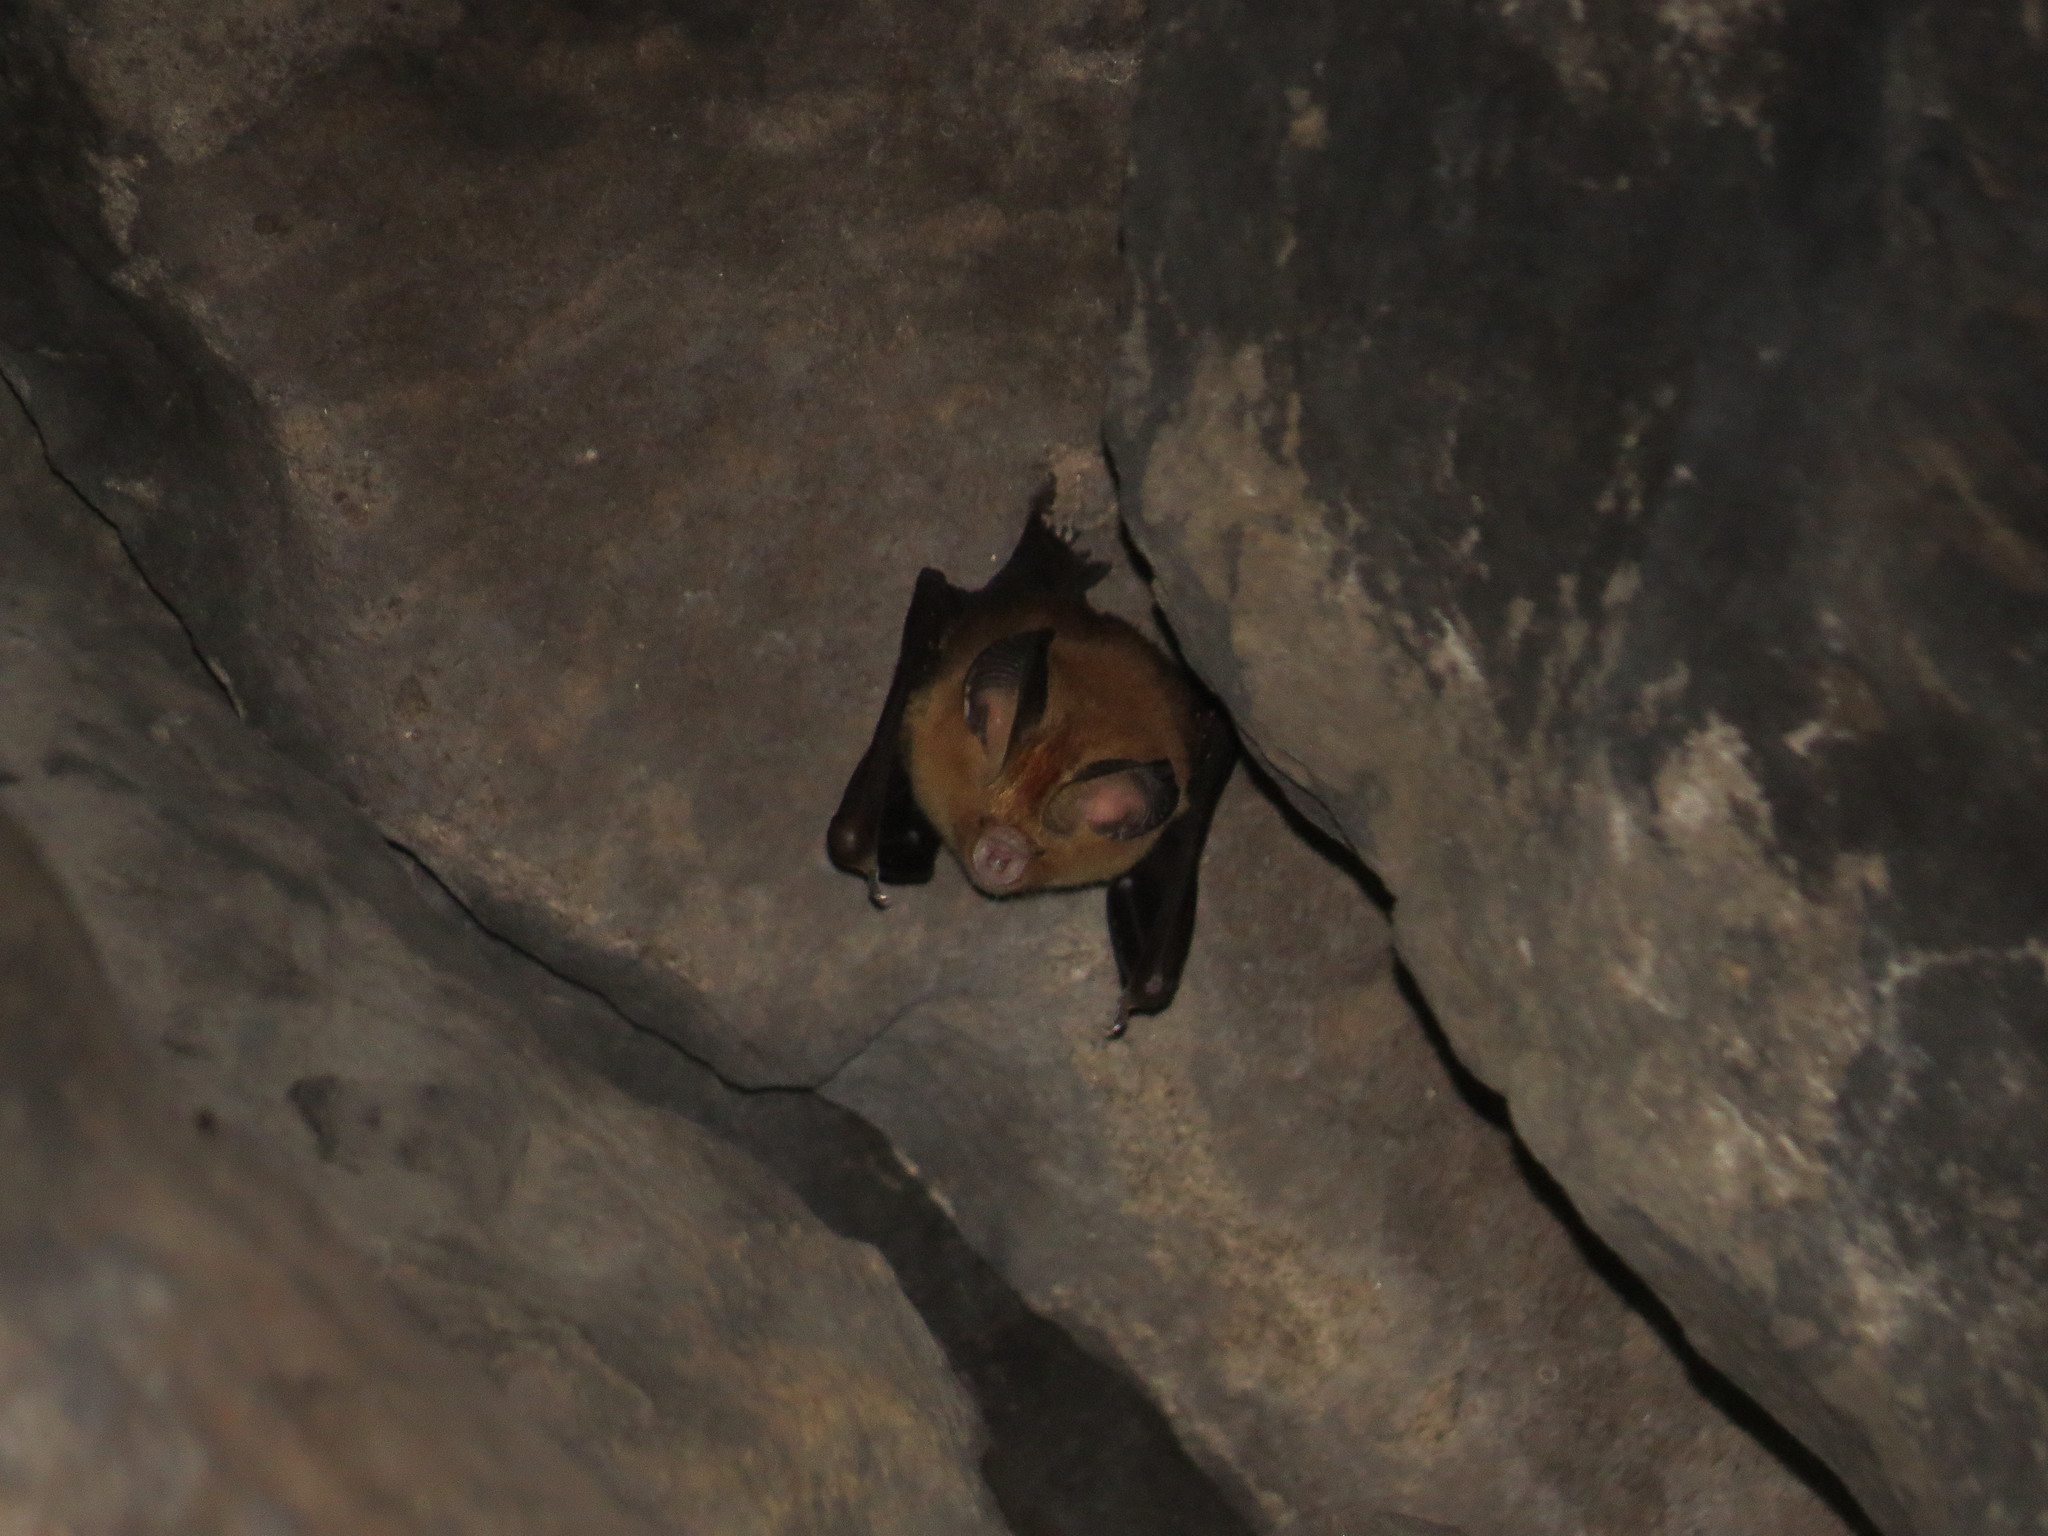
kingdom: Animalia
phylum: Chordata
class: Mammalia
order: Chiroptera
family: Hipposideridae
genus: Hipposideros
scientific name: Hipposideros gentilis
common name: Andersen's leaf-nosed bat
